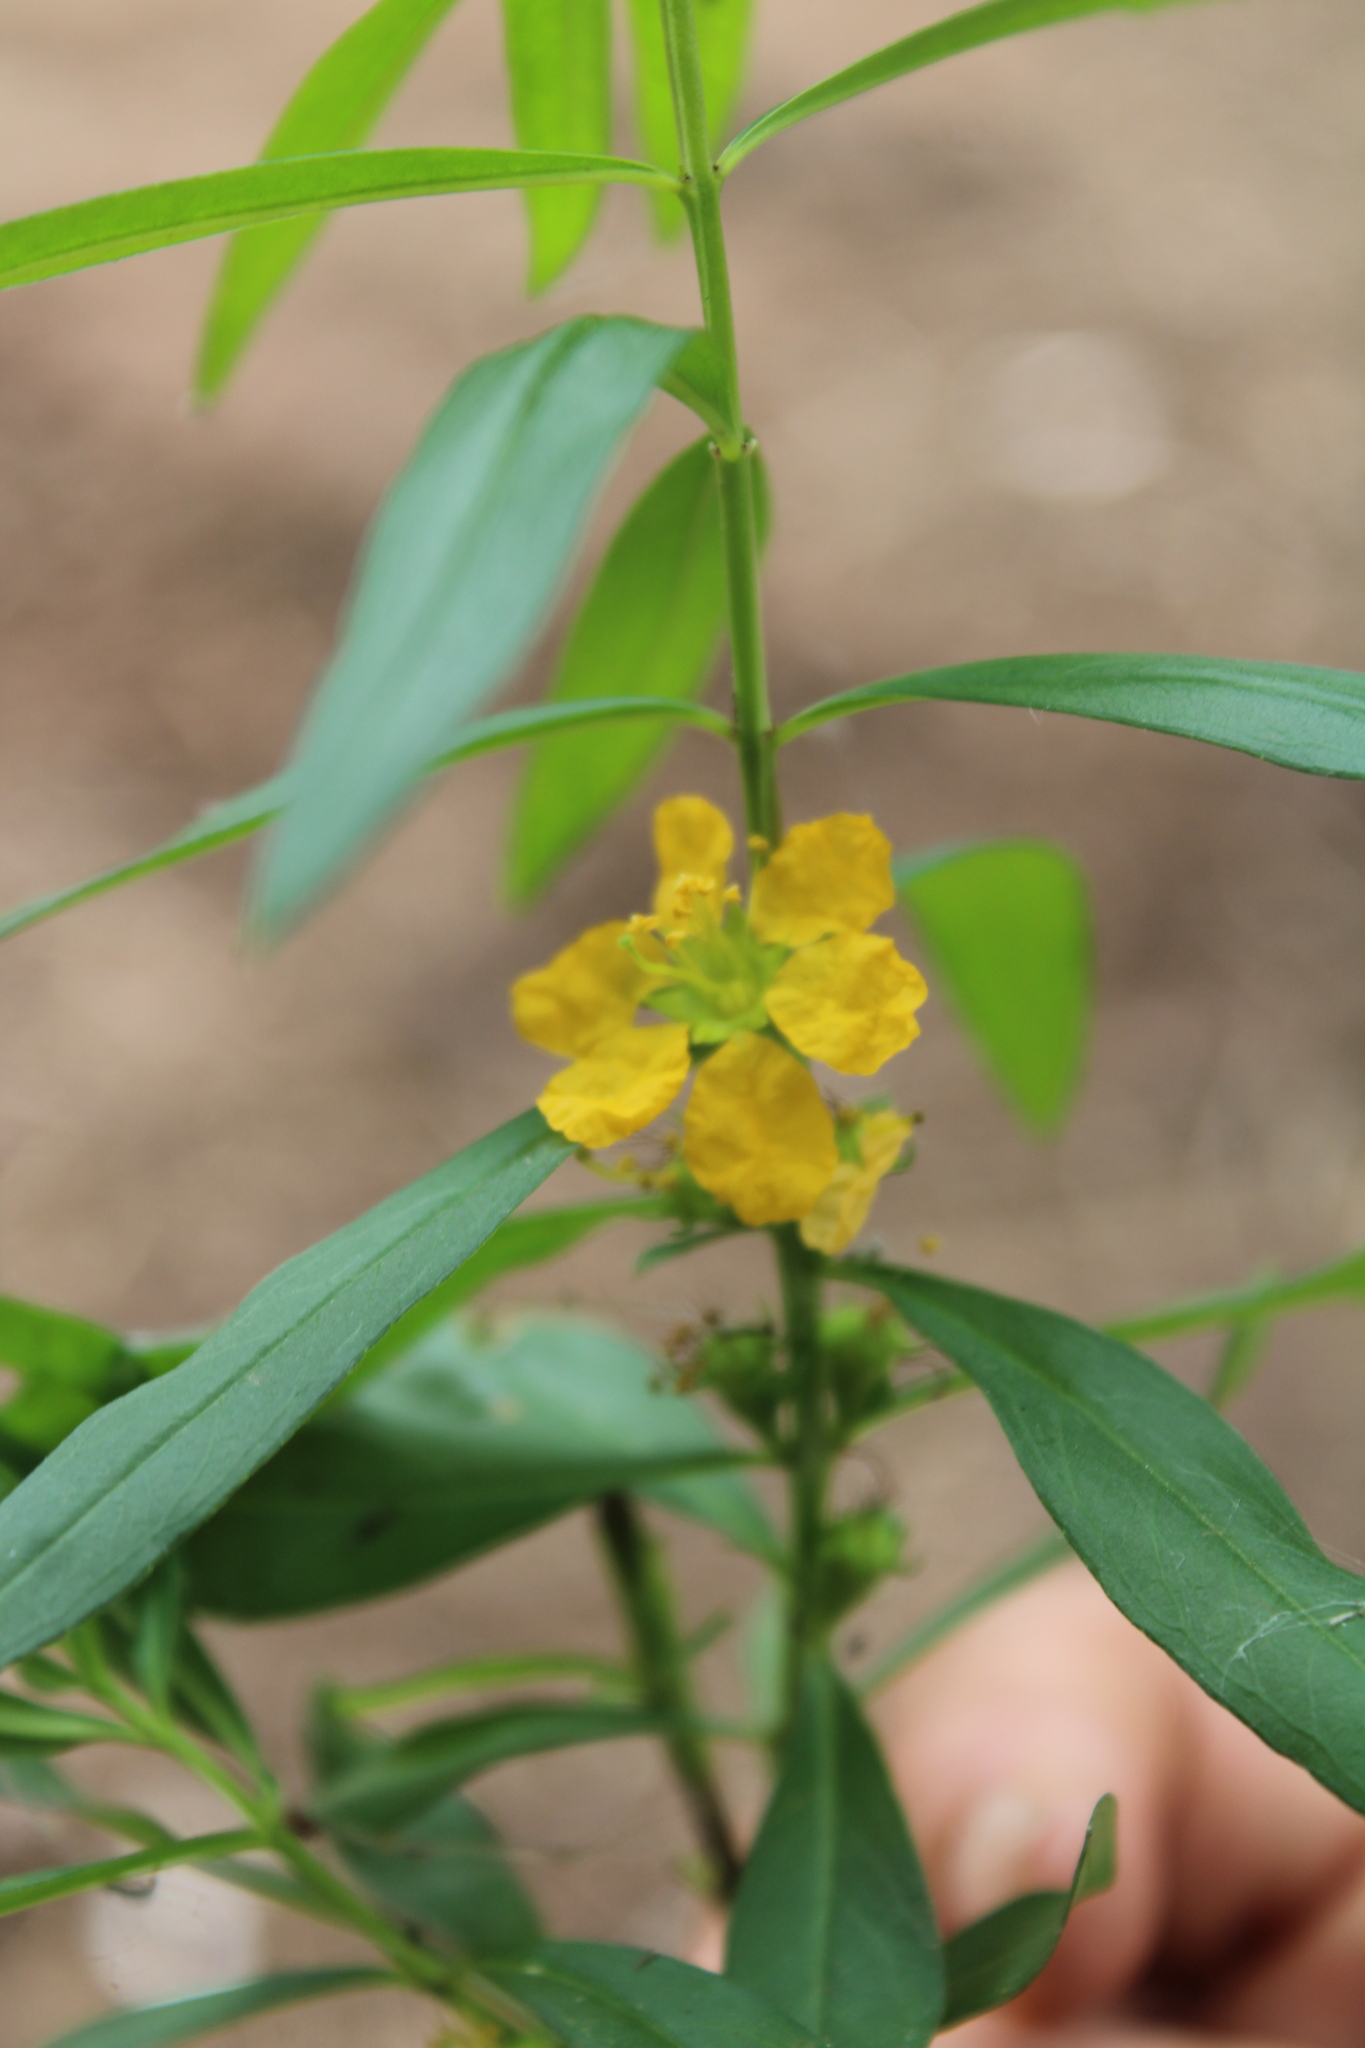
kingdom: Plantae
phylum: Tracheophyta
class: Magnoliopsida
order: Myrtales
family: Lythraceae
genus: Heimia
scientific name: Heimia salicifolia
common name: Willow-leaf heimia
